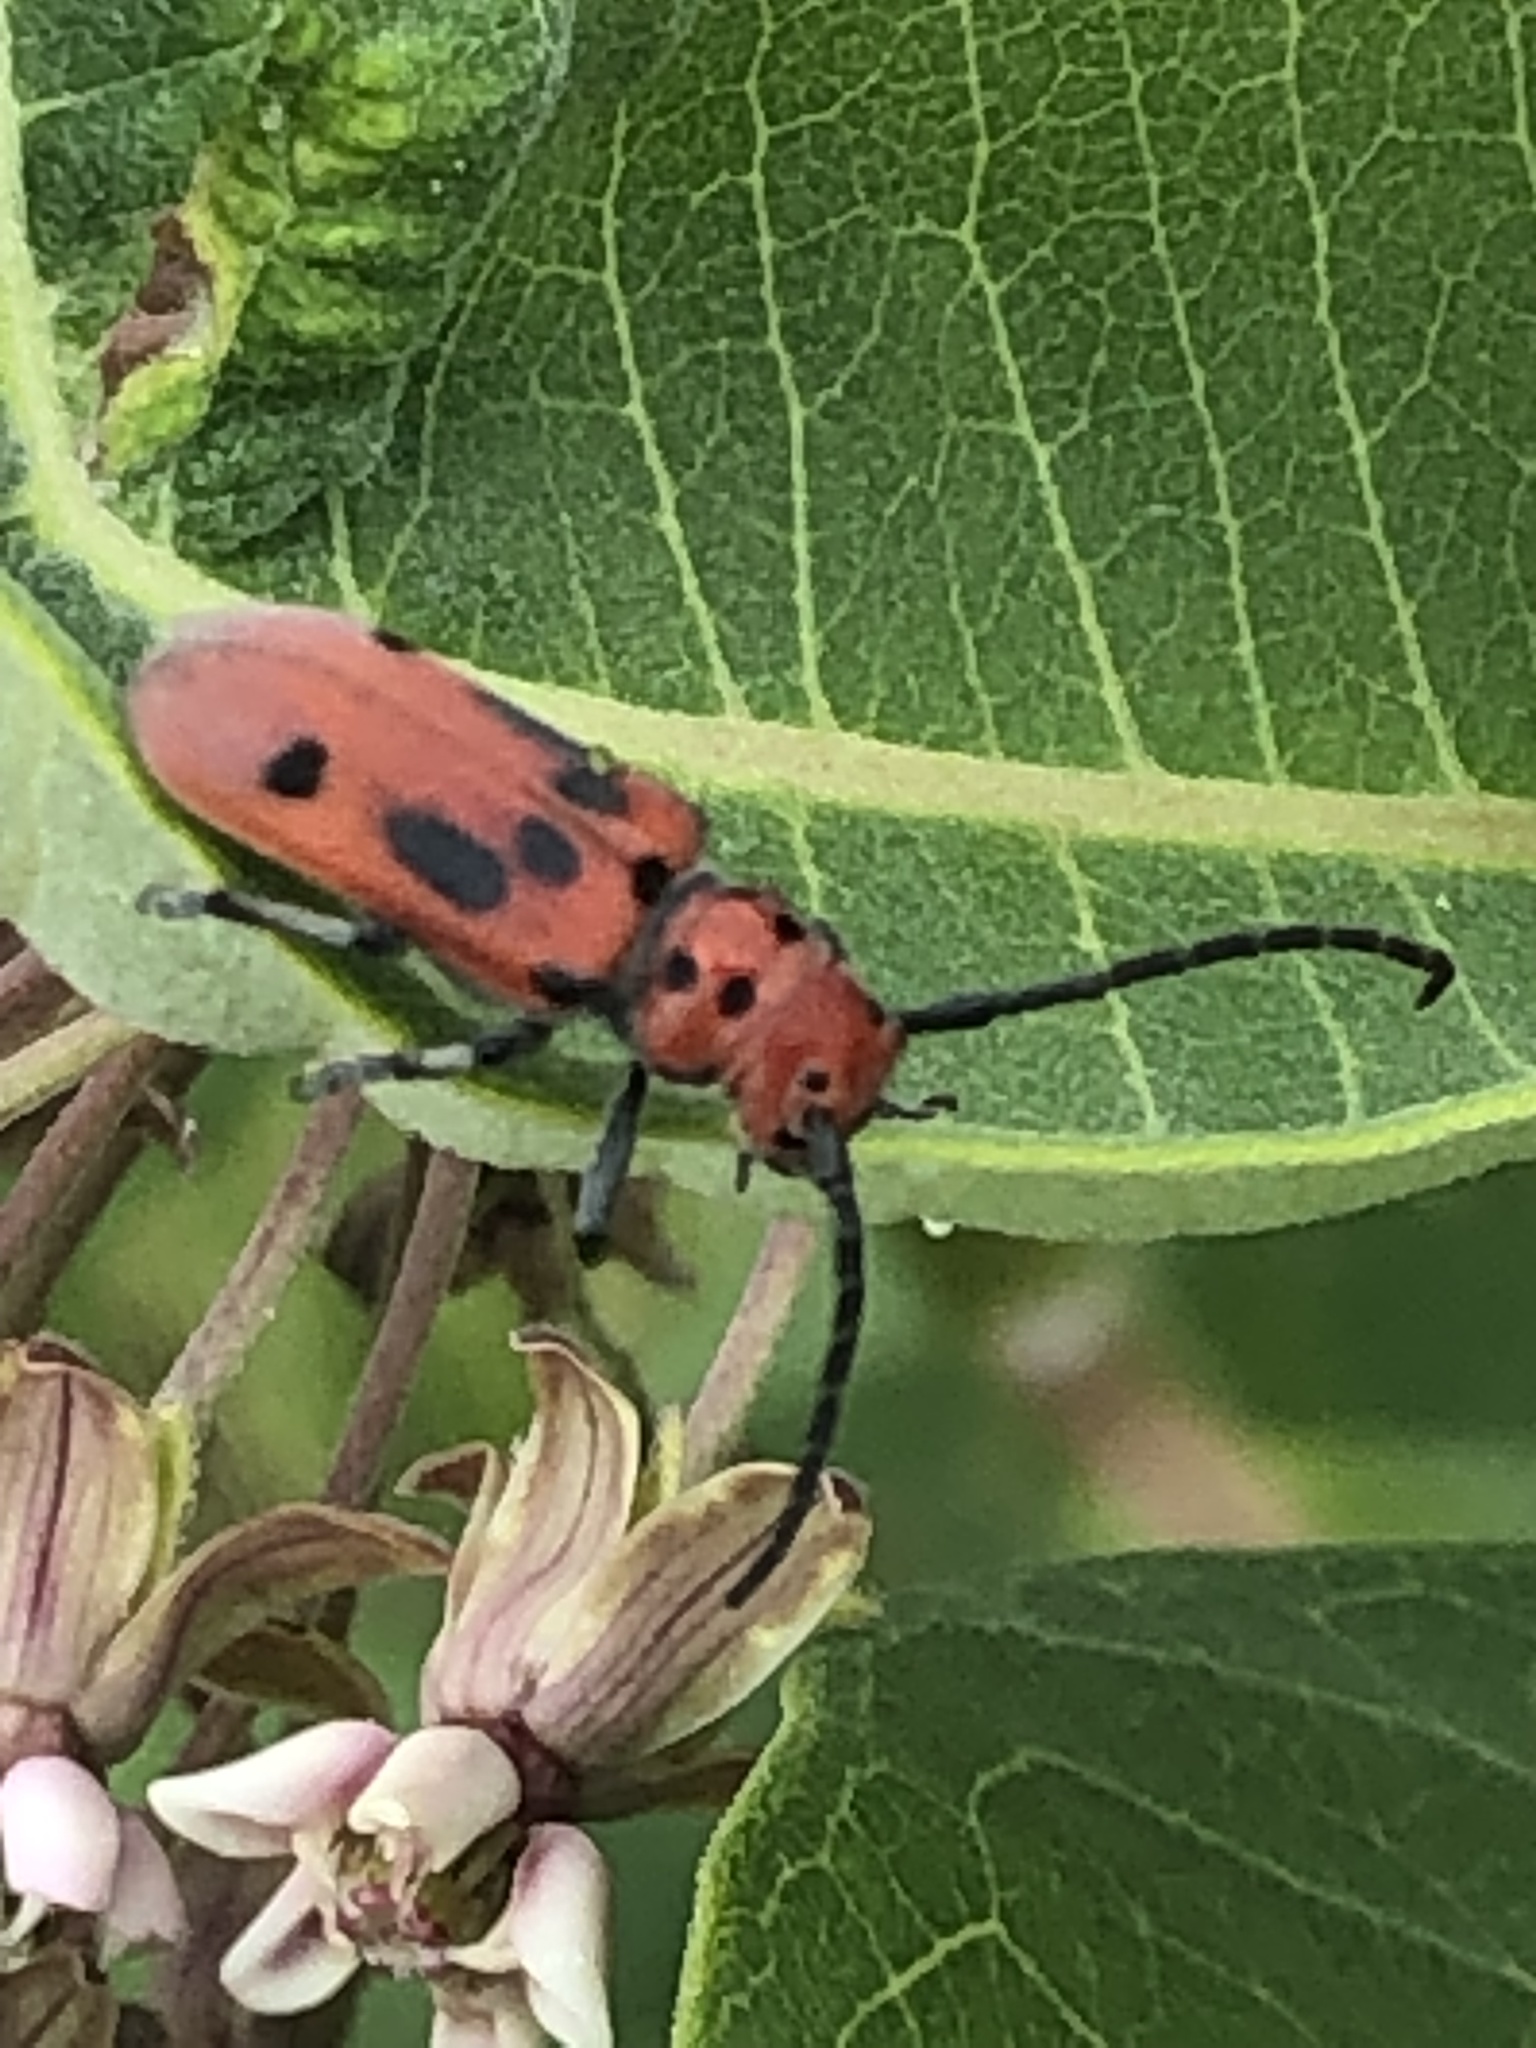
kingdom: Animalia
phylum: Arthropoda
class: Insecta
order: Coleoptera
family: Cerambycidae
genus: Tetraopes
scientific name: Tetraopes tetrophthalmus
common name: Red milkweed beetle
